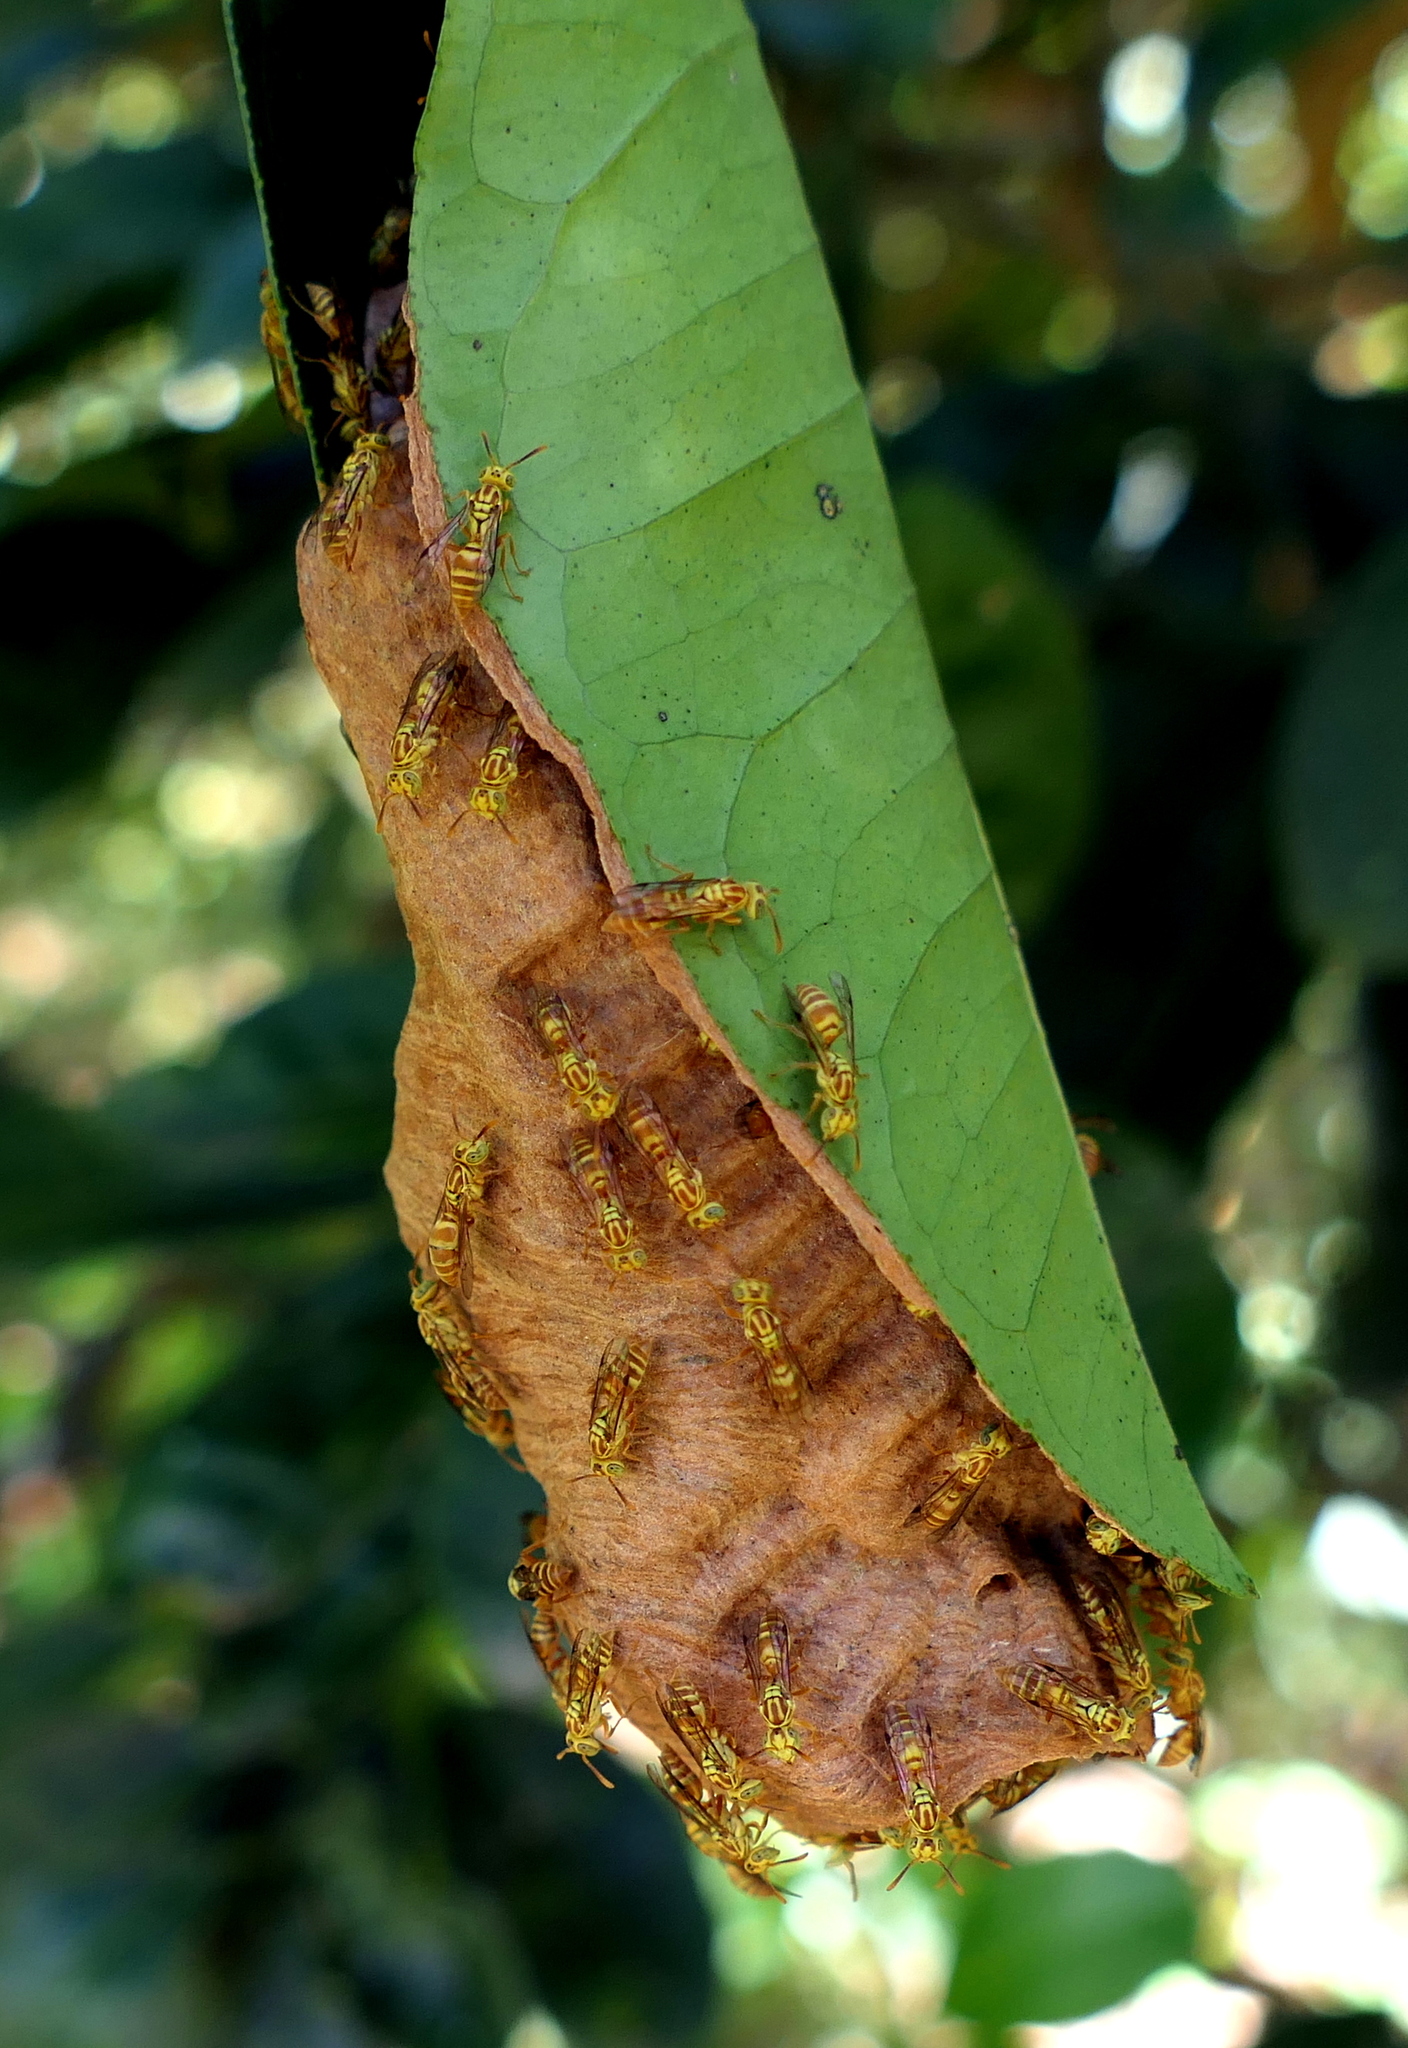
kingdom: Animalia
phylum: Arthropoda
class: Insecta
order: Hymenoptera
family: Vespidae
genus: Protopolybia
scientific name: Protopolybia potiguara
